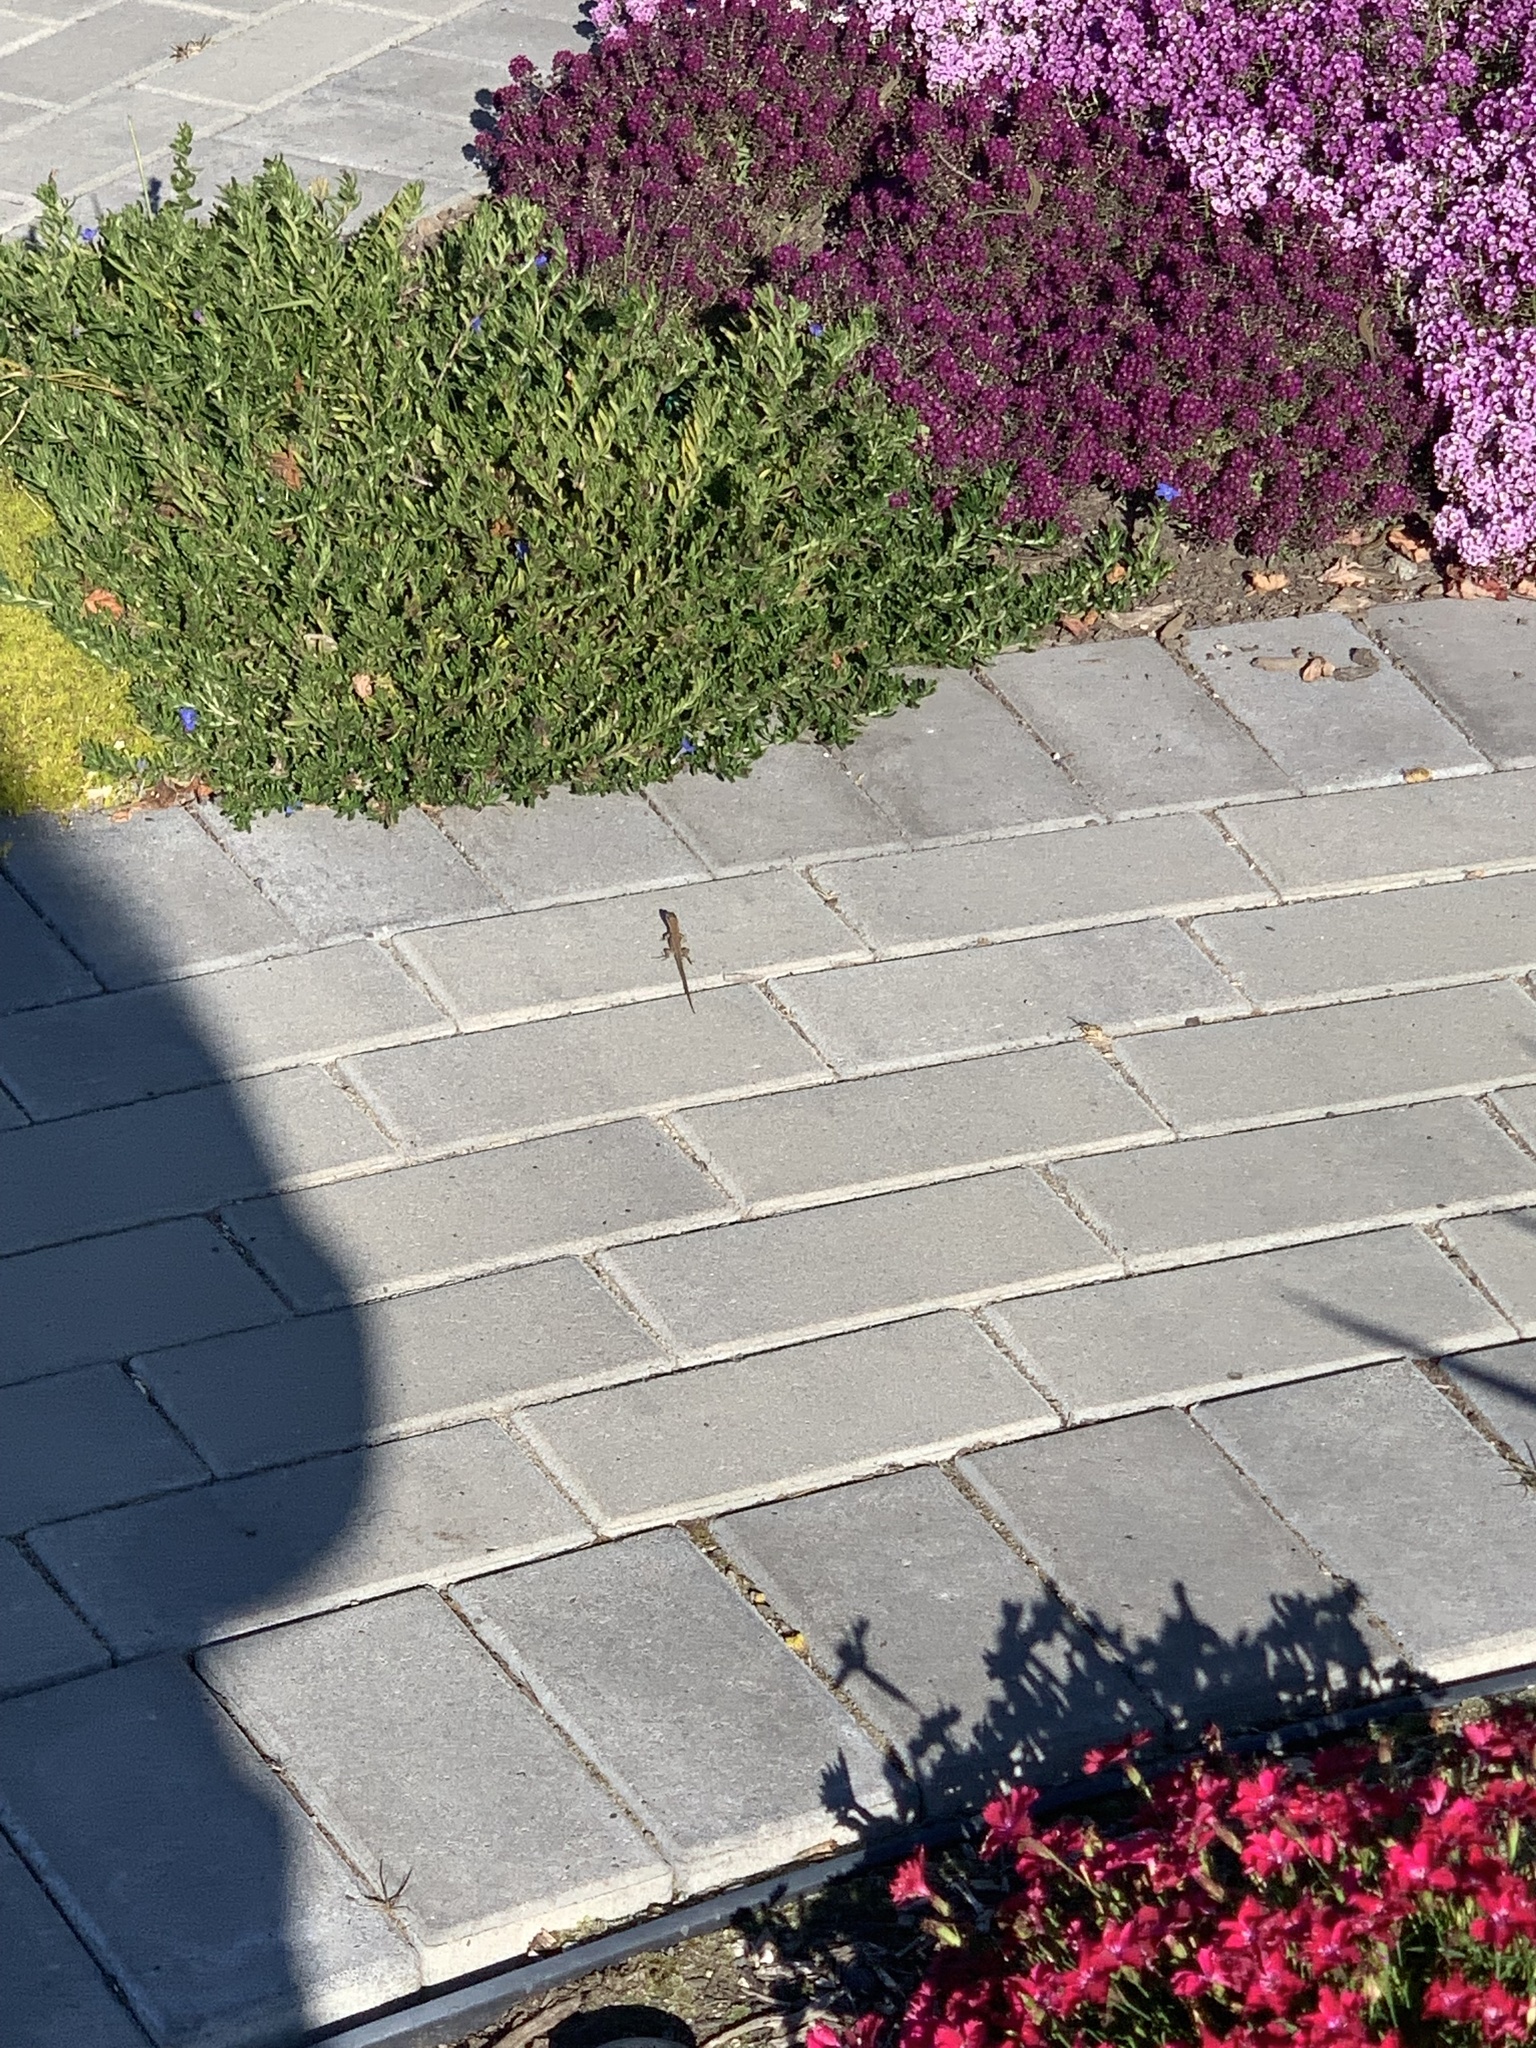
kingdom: Animalia
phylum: Chordata
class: Squamata
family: Lacertidae
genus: Podarcis
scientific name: Podarcis muralis
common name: Common wall lizard
